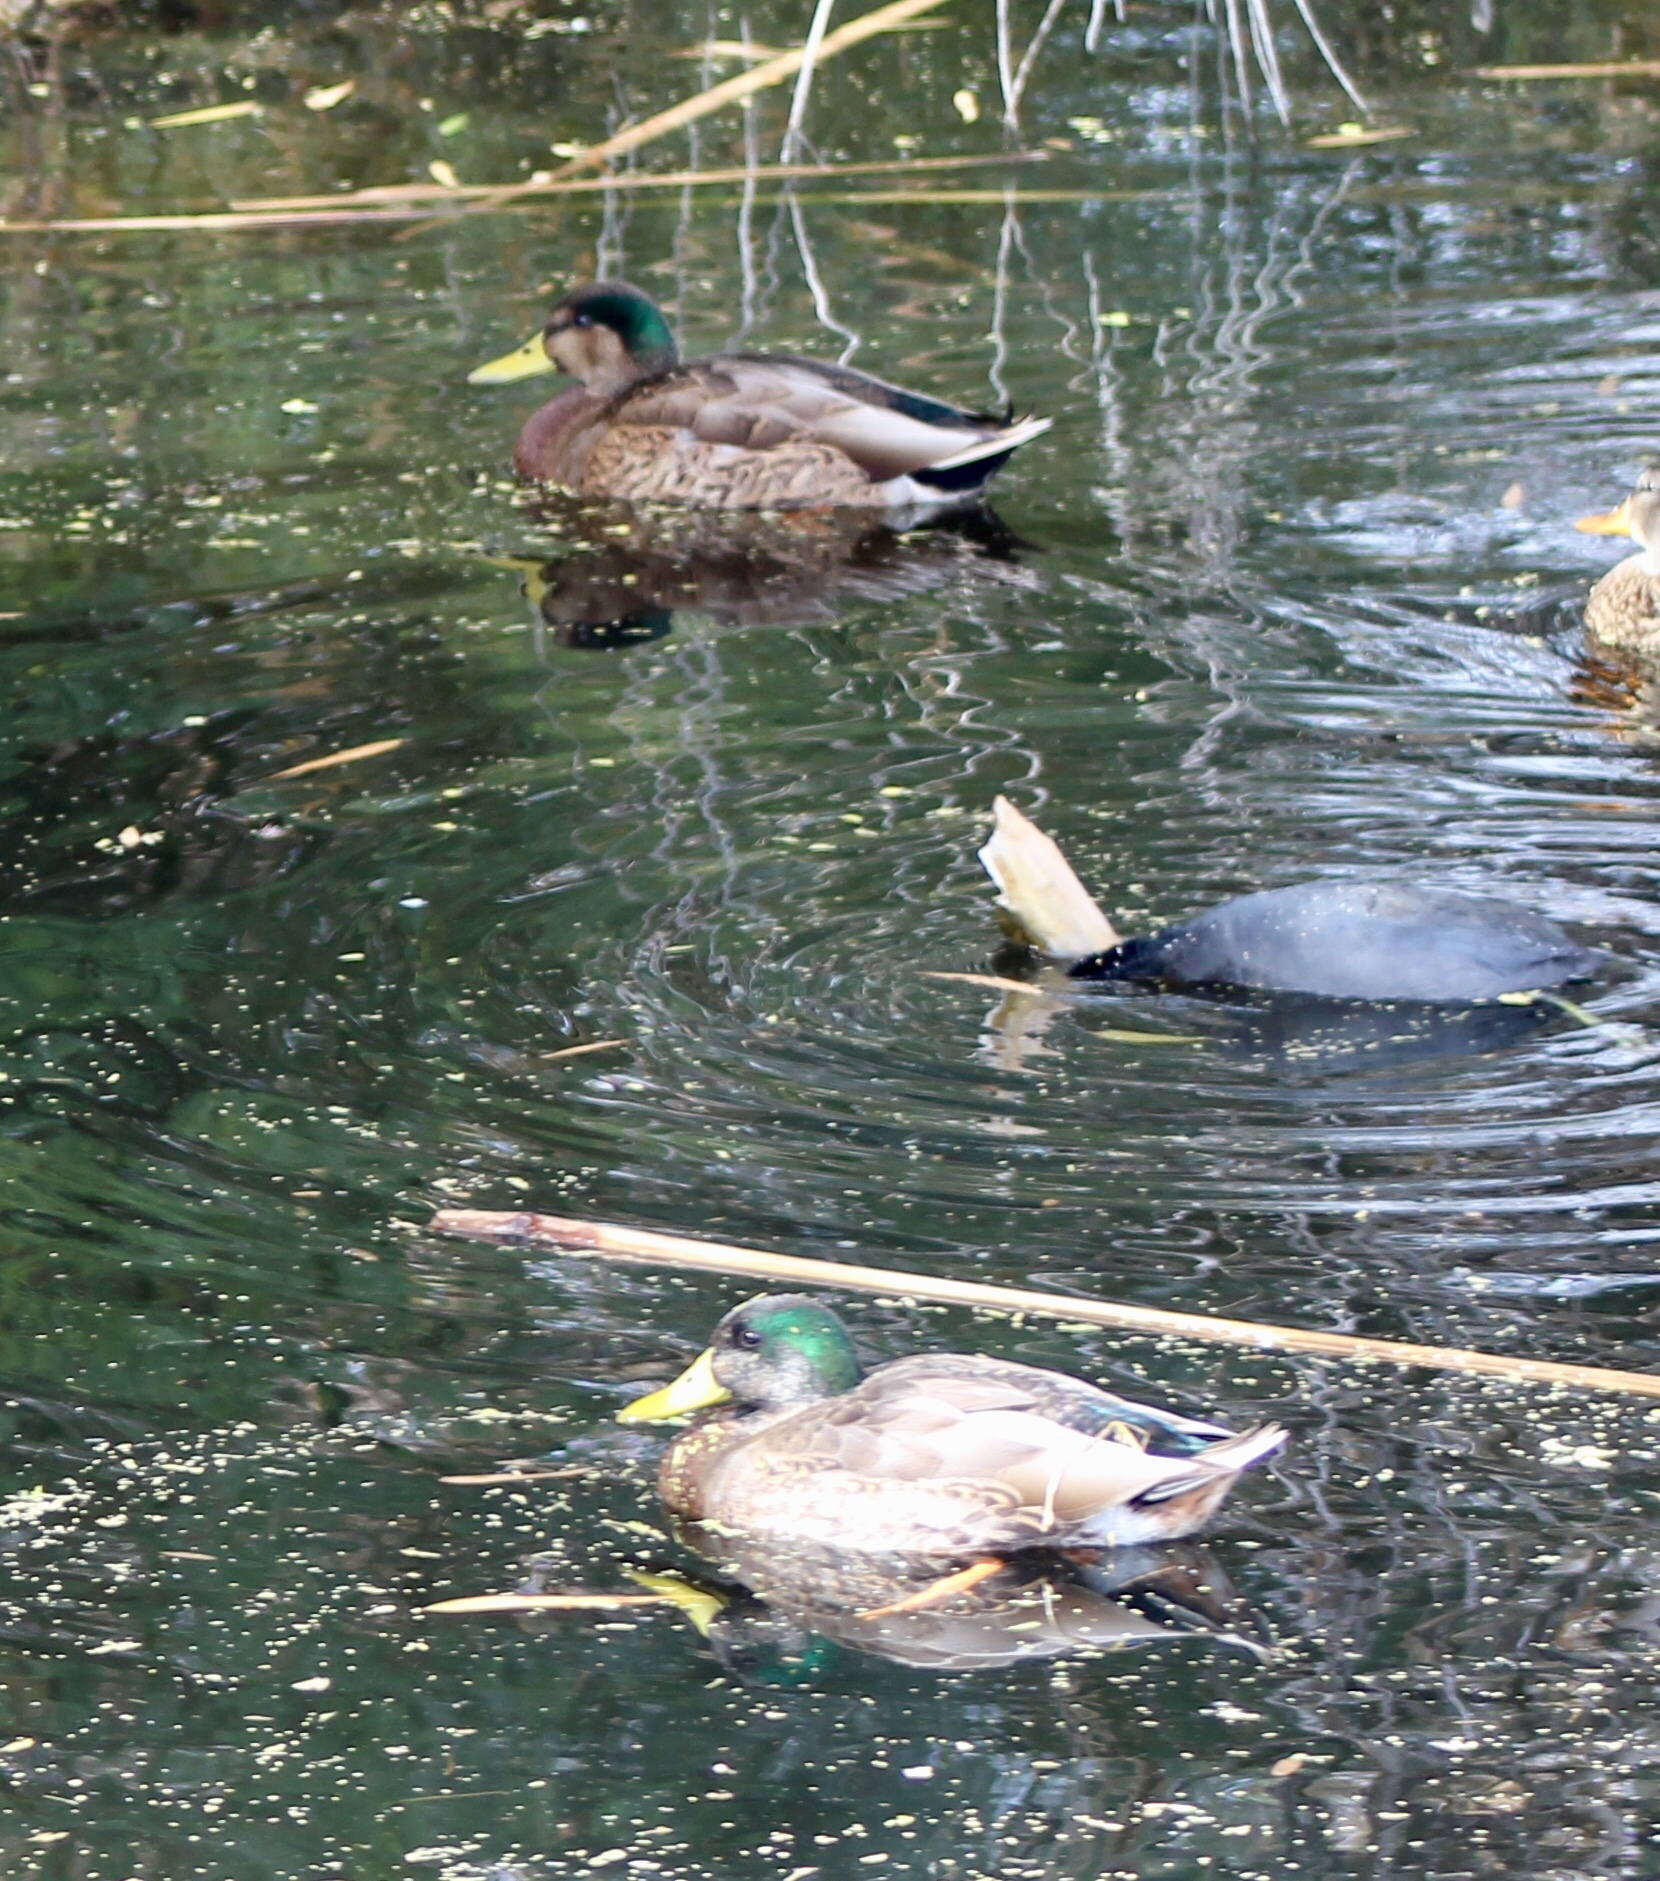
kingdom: Animalia
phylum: Chordata
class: Aves
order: Anseriformes
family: Anatidae
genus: Anas
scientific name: Anas
